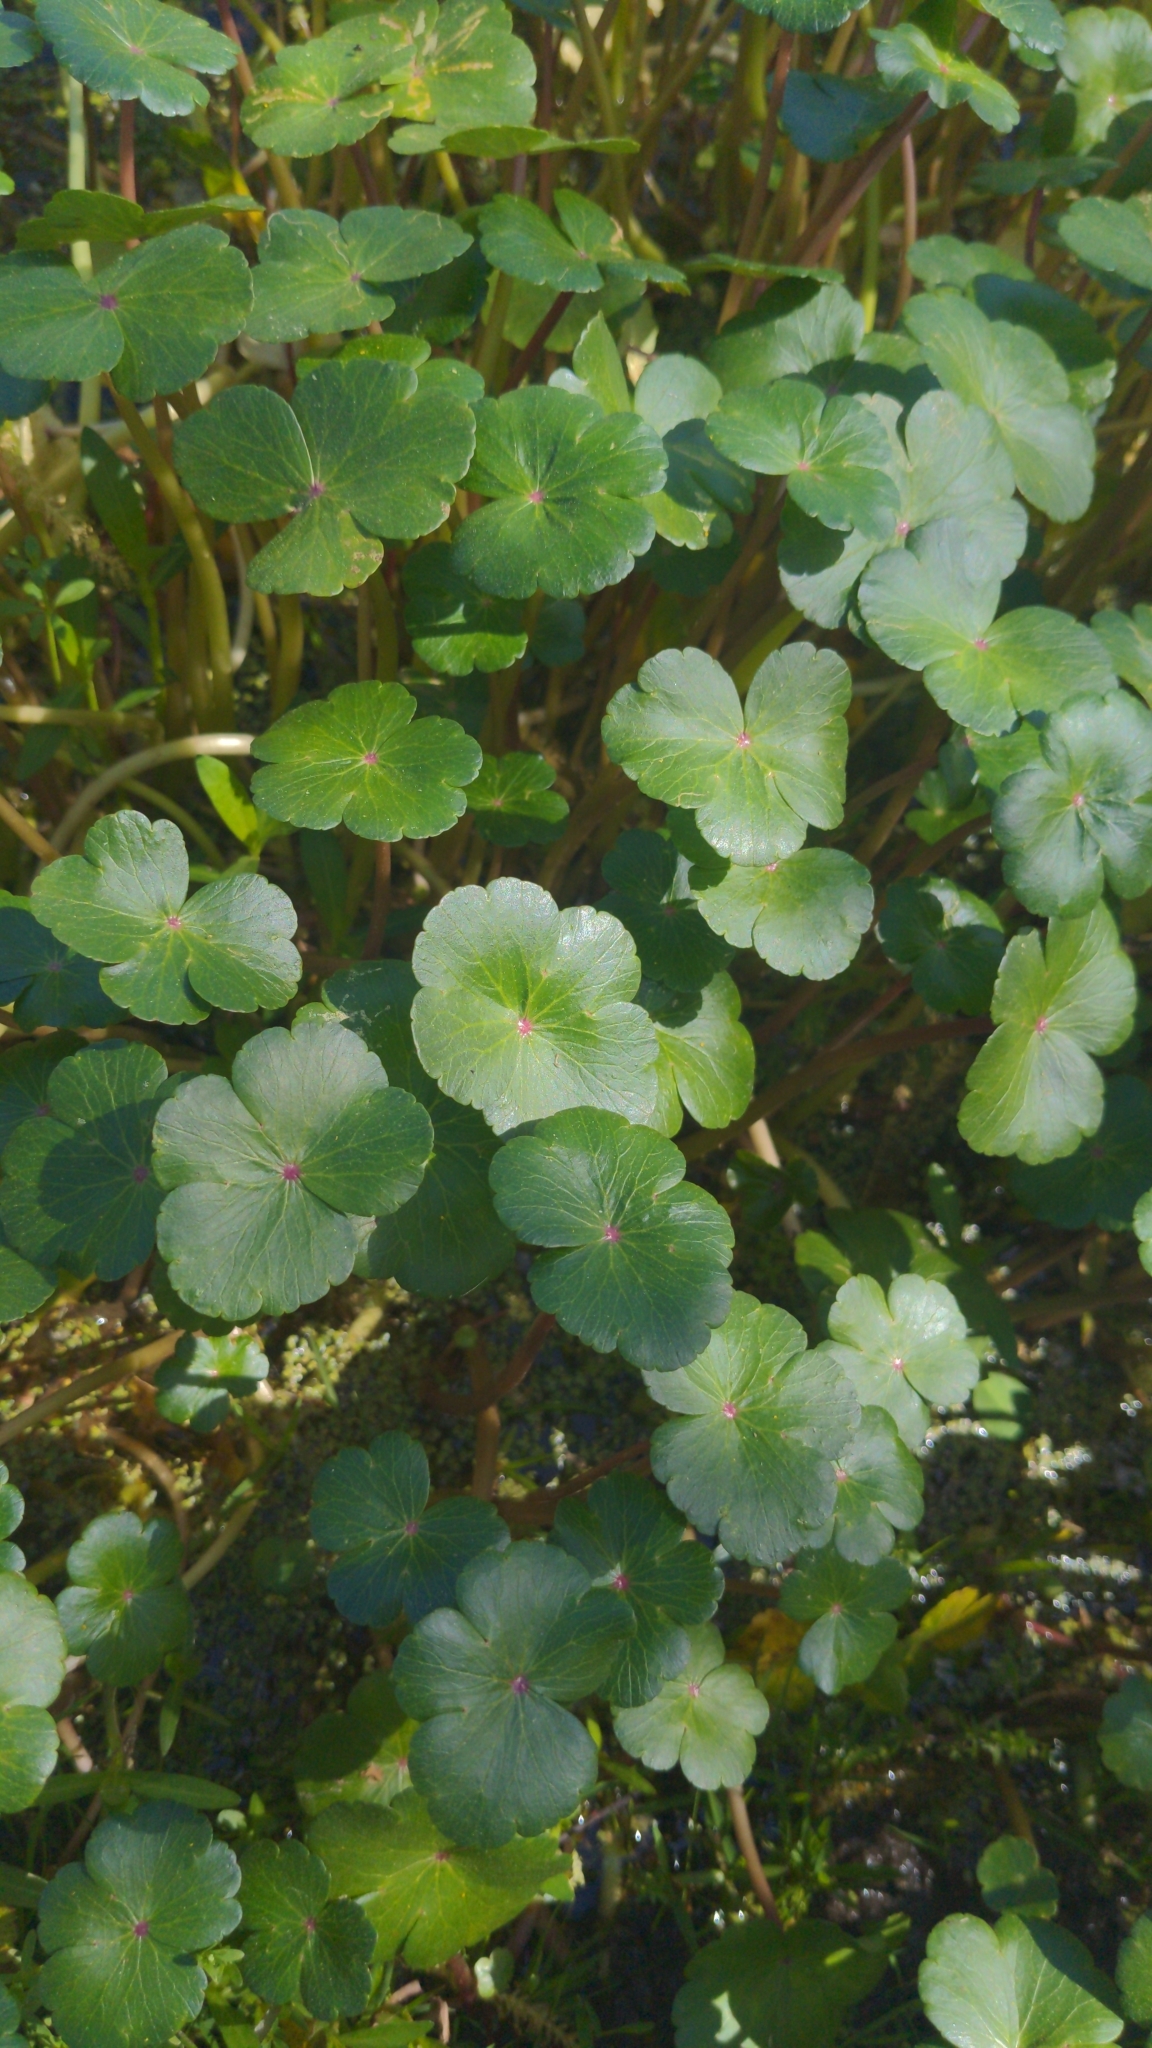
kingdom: Plantae
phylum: Tracheophyta
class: Magnoliopsida
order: Apiales
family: Araliaceae
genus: Hydrocotyle
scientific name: Hydrocotyle ranunculoides
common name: Floating pennywort
